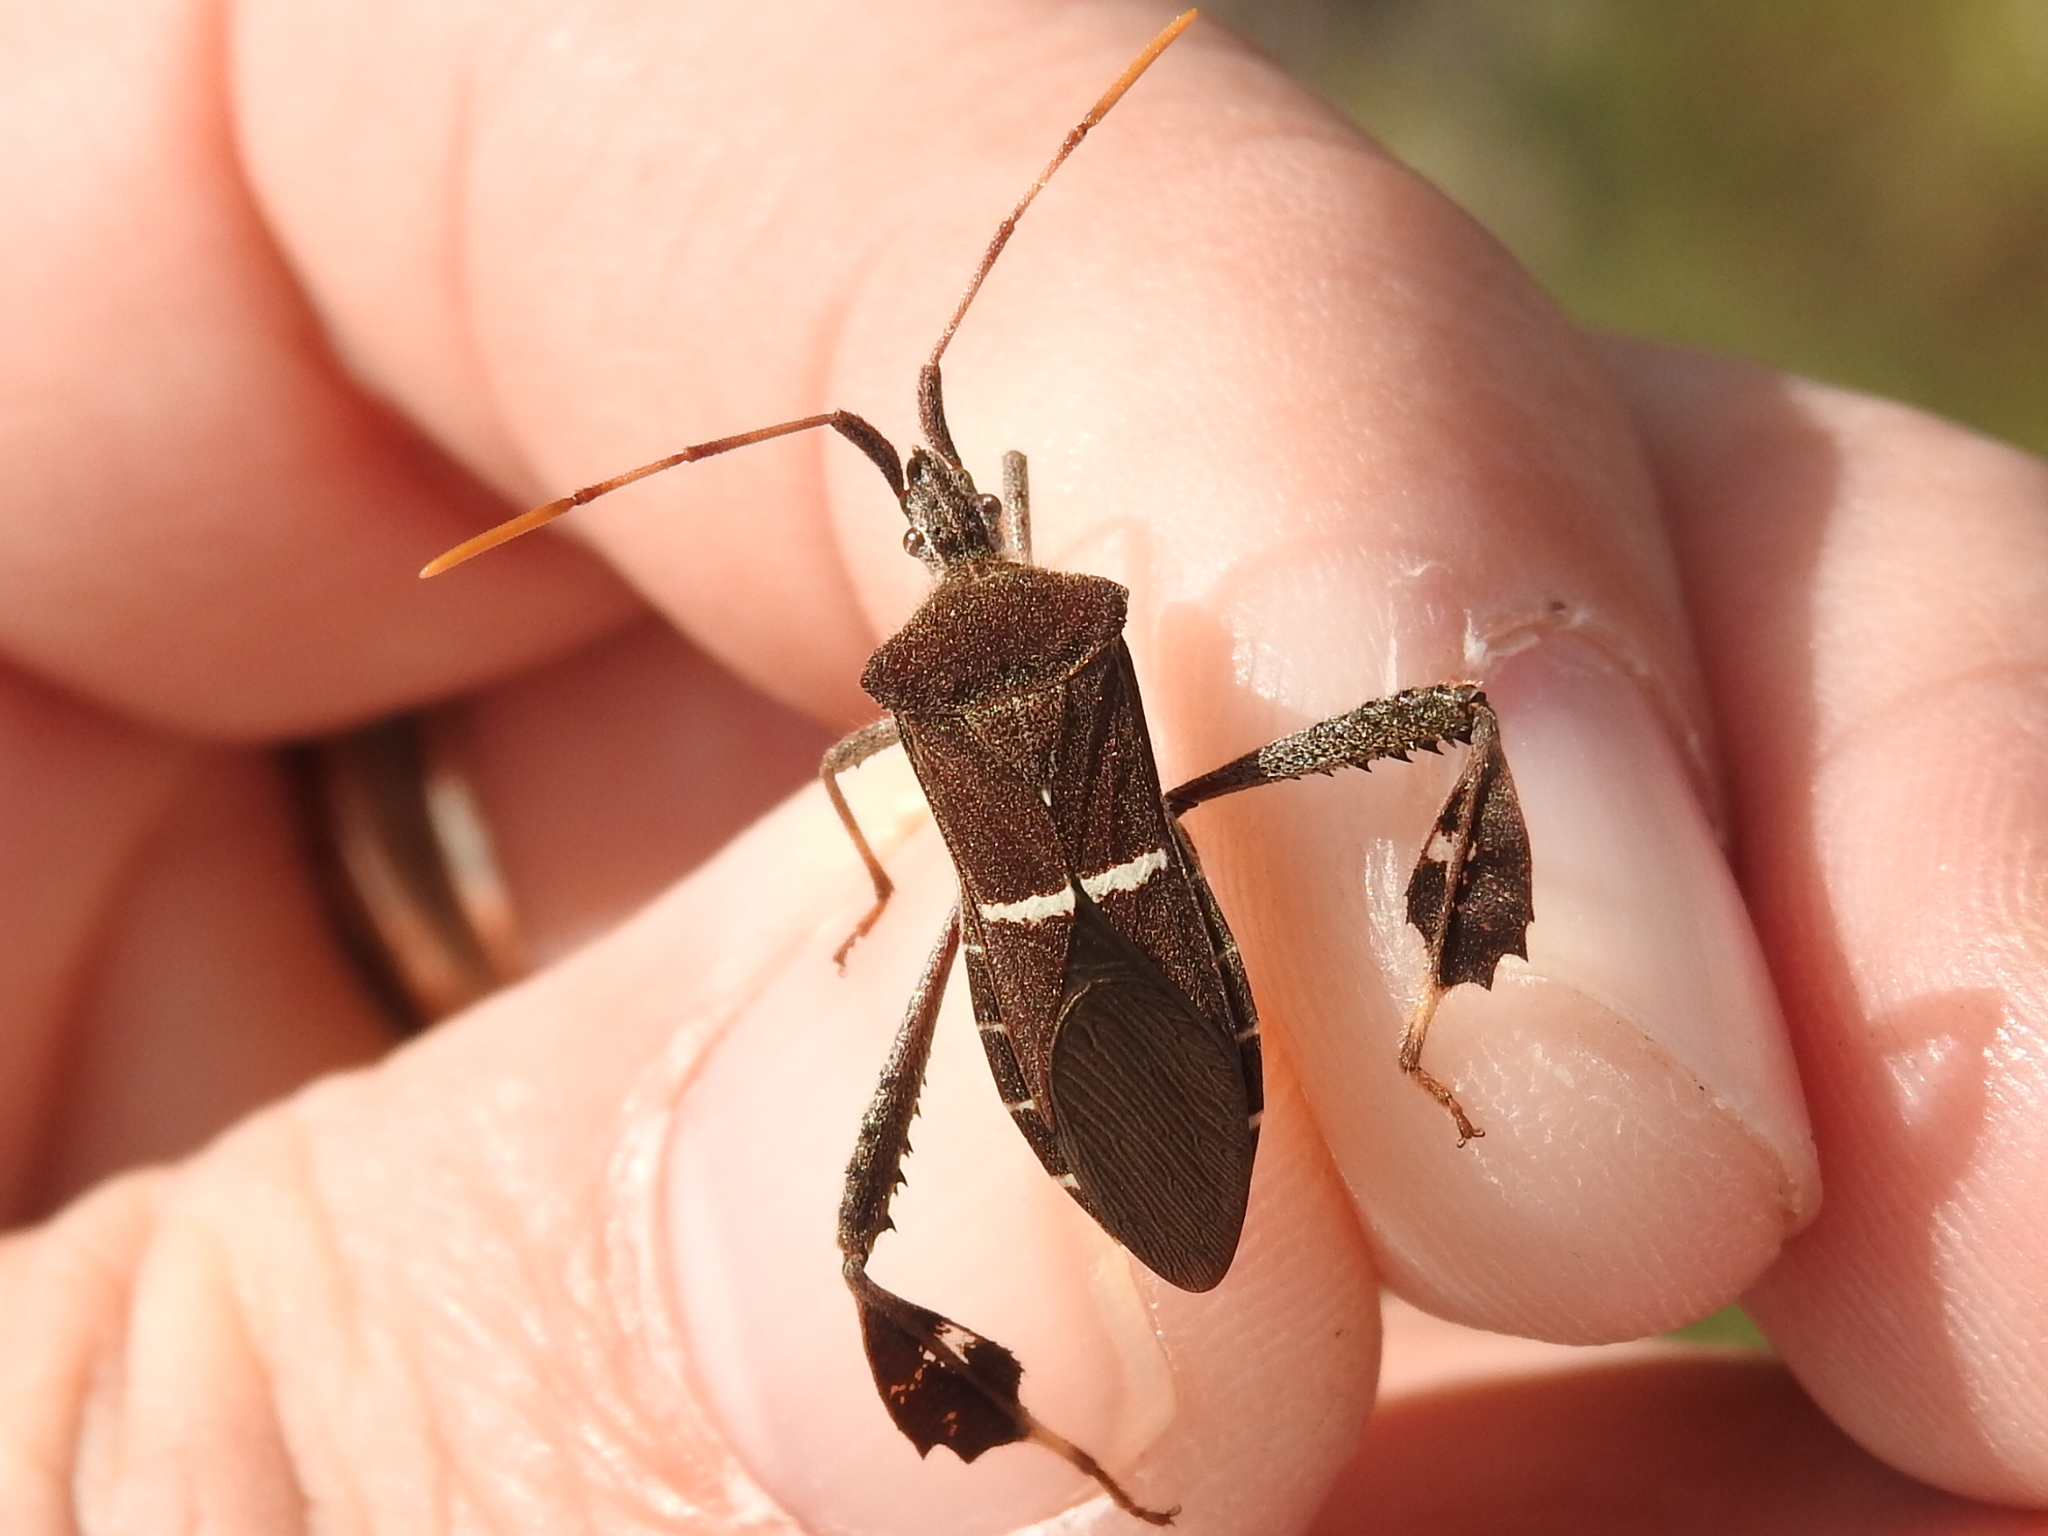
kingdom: Animalia
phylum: Arthropoda
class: Insecta
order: Hemiptera
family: Coreidae
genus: Leptoglossus
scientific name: Leptoglossus phyllopus
